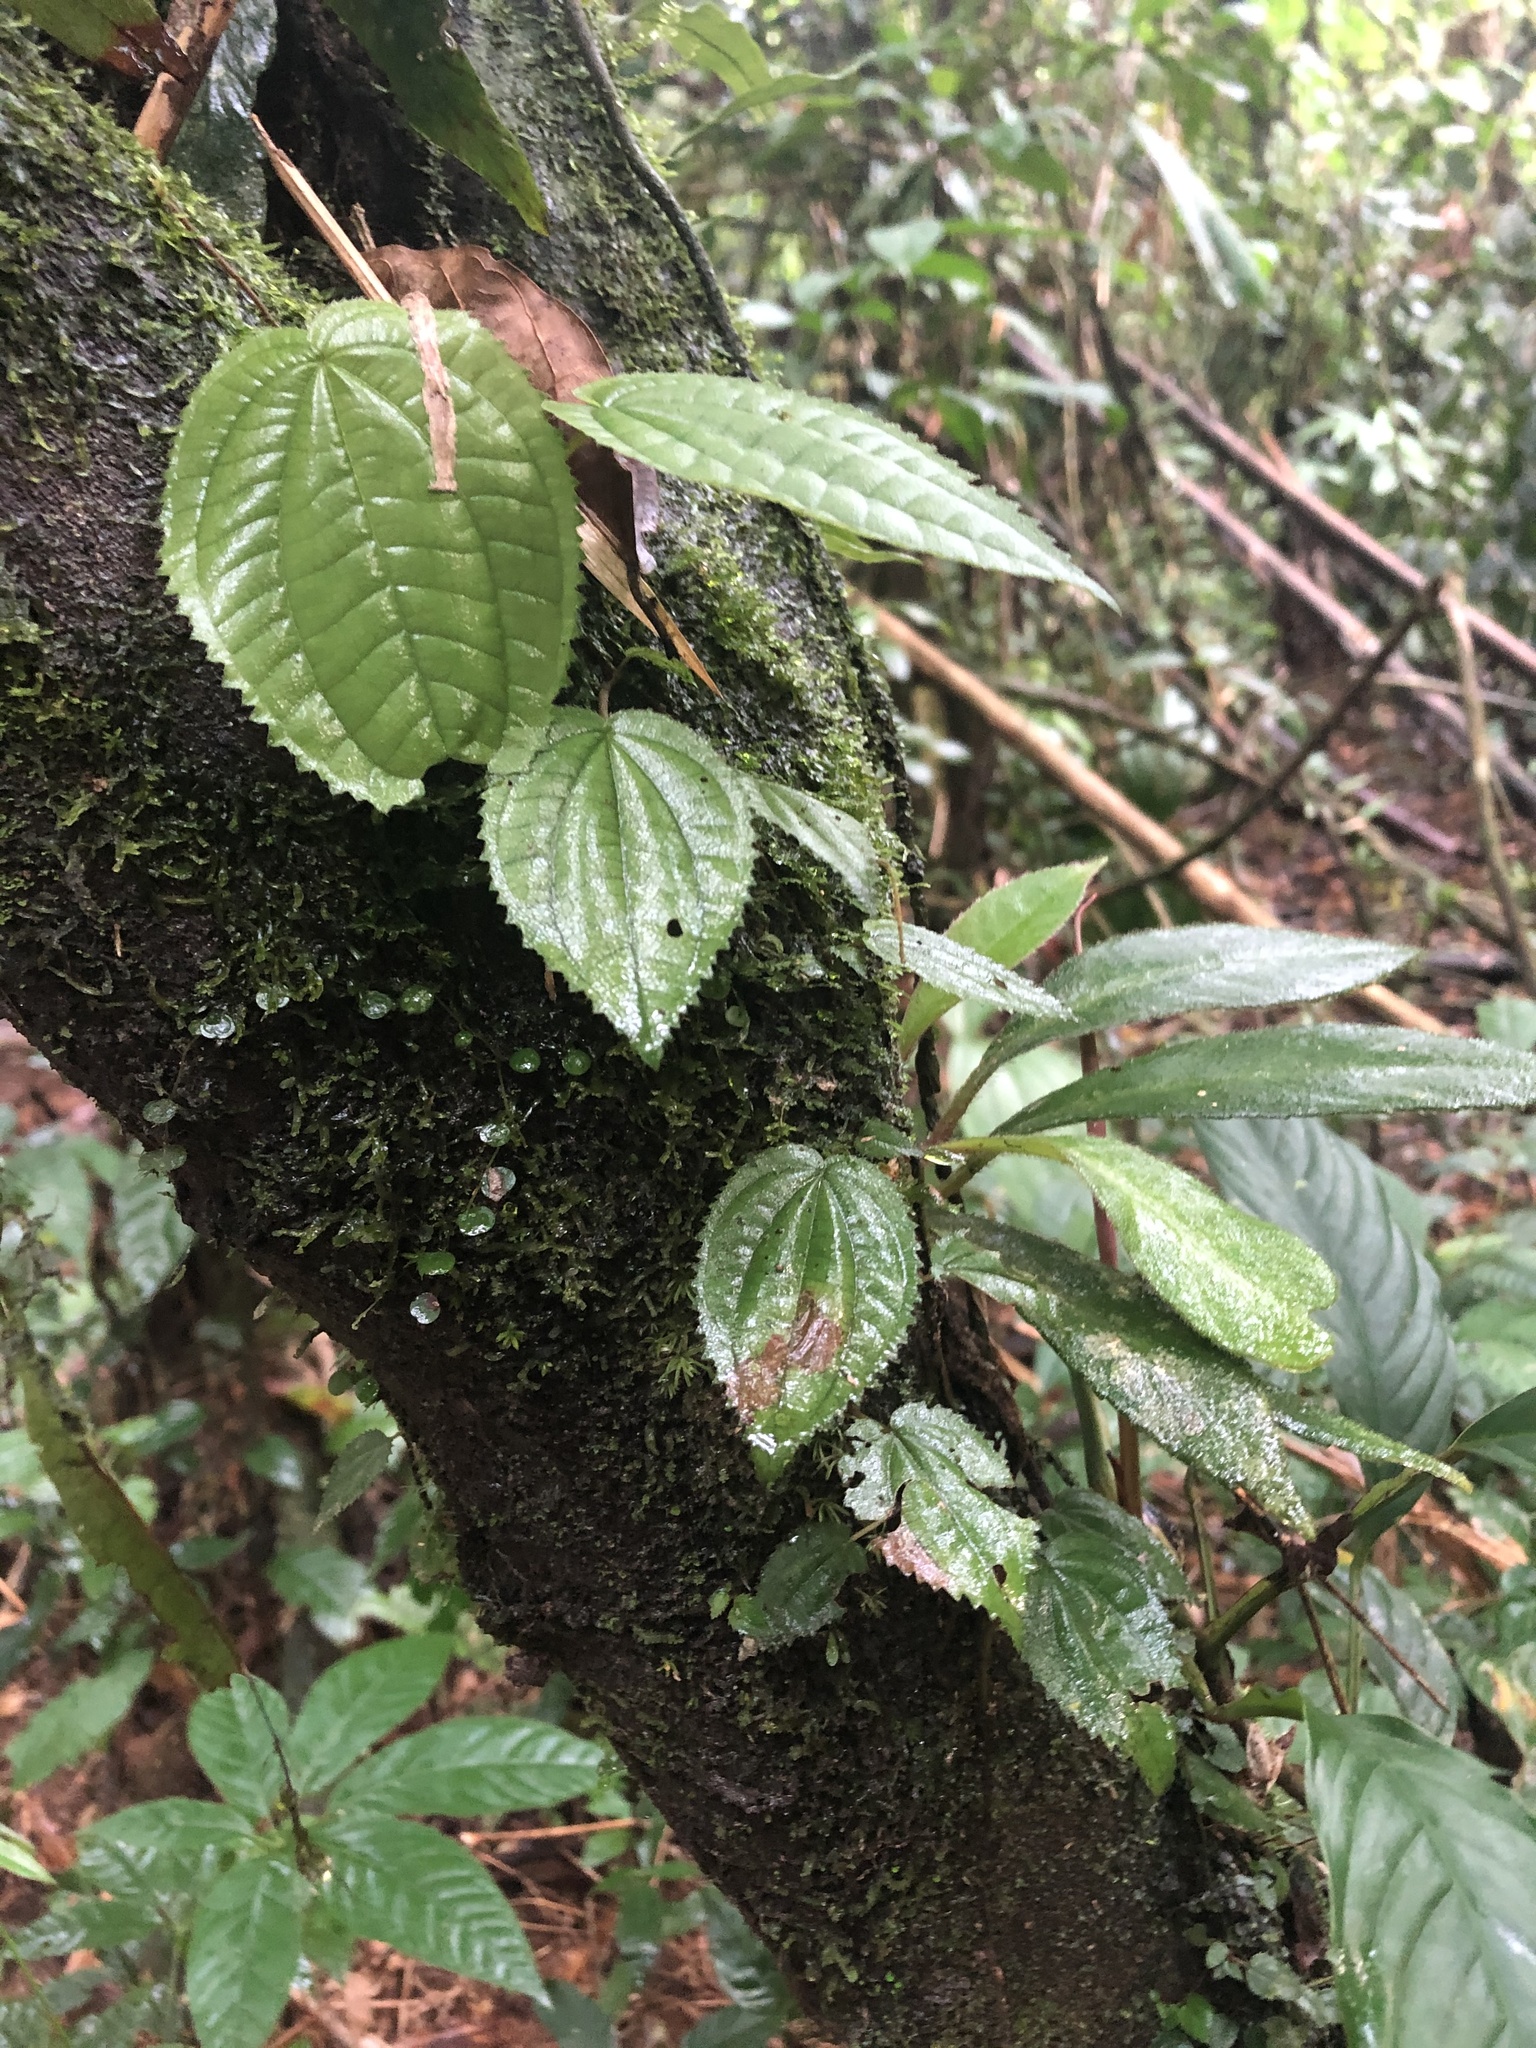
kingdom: Plantae
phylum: Tracheophyta
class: Magnoliopsida
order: Myrtales
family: Melastomataceae
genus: Miconia
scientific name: Miconia serpens
